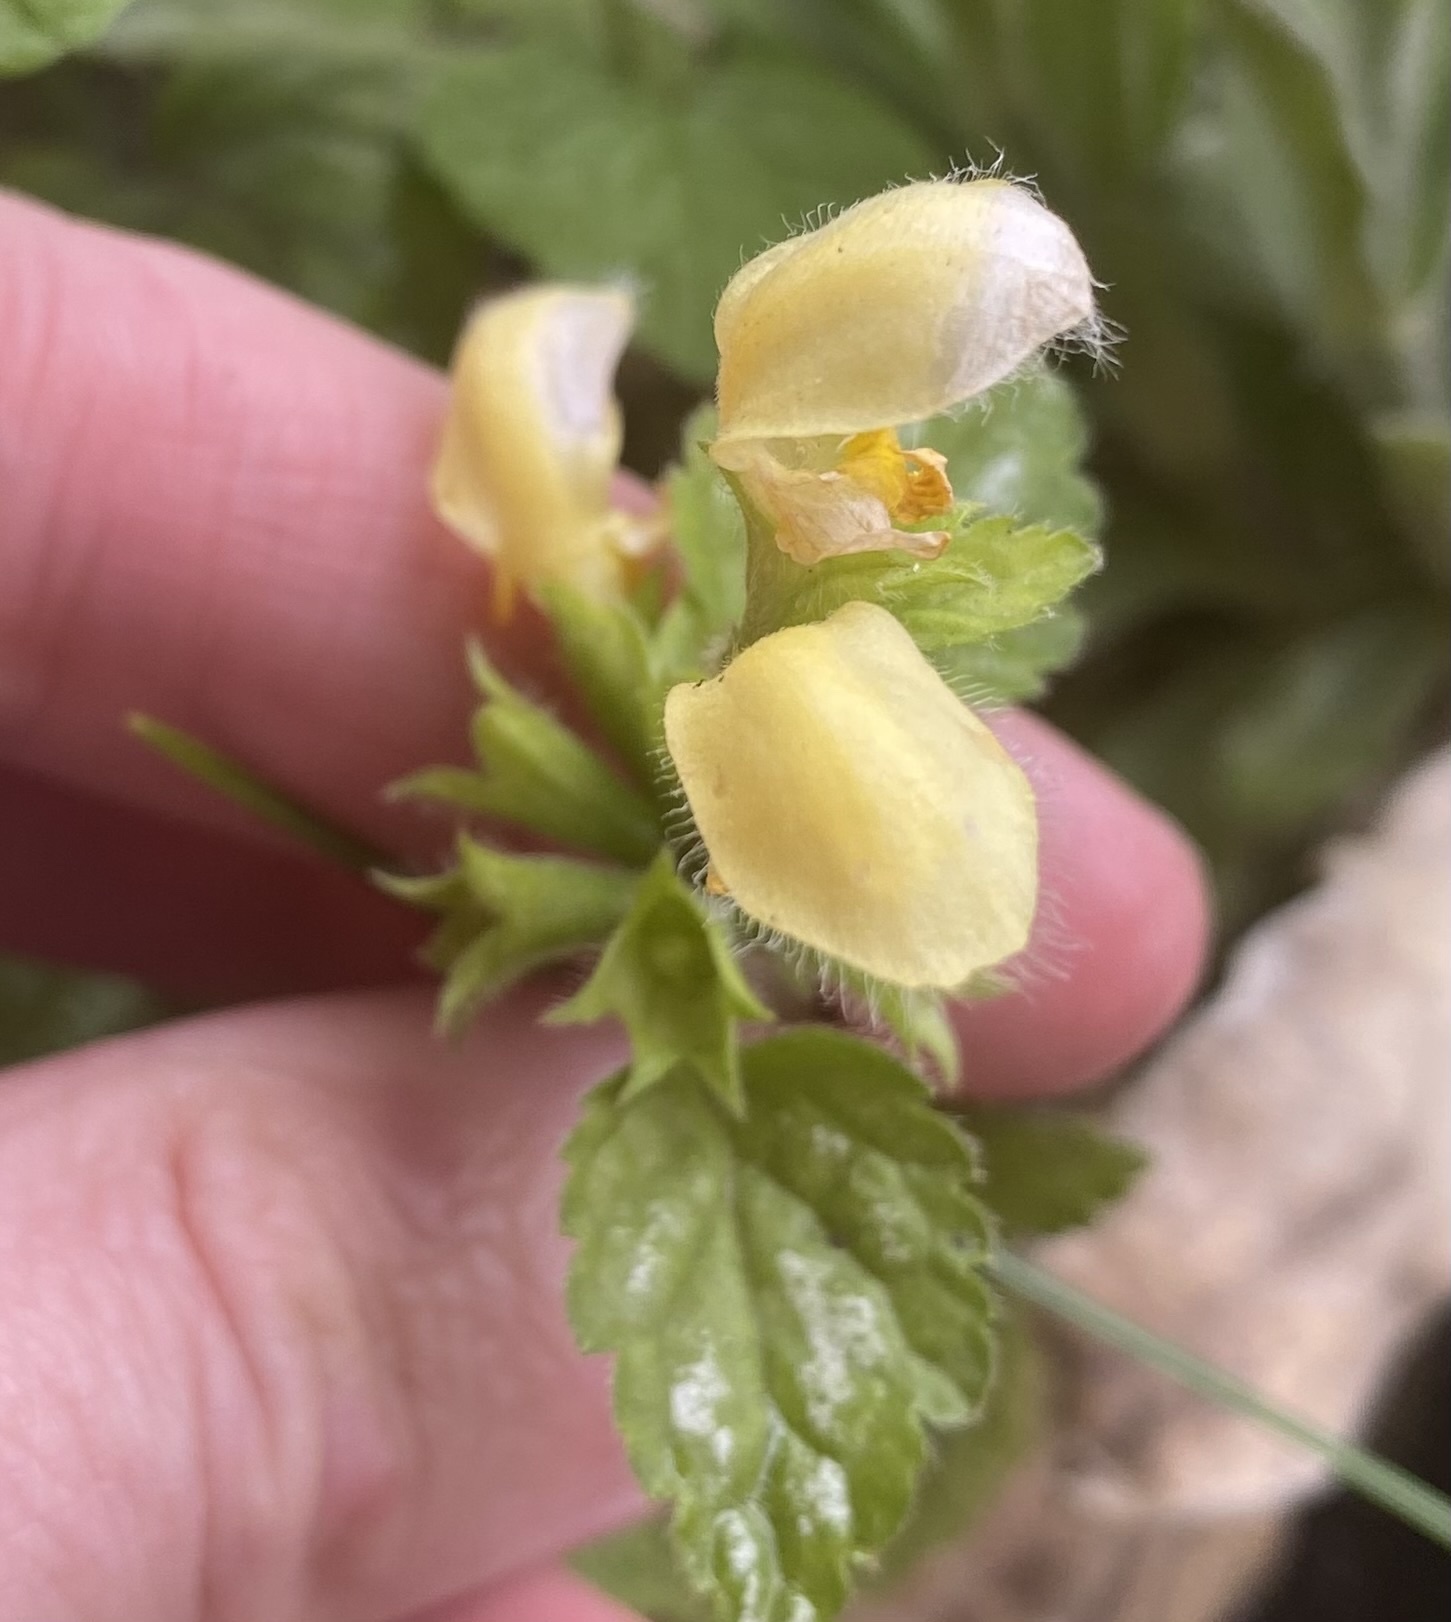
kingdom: Plantae
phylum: Tracheophyta
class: Magnoliopsida
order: Lamiales
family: Lamiaceae
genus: Lamium
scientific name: Lamium galeobdolon
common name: Yellow archangel
